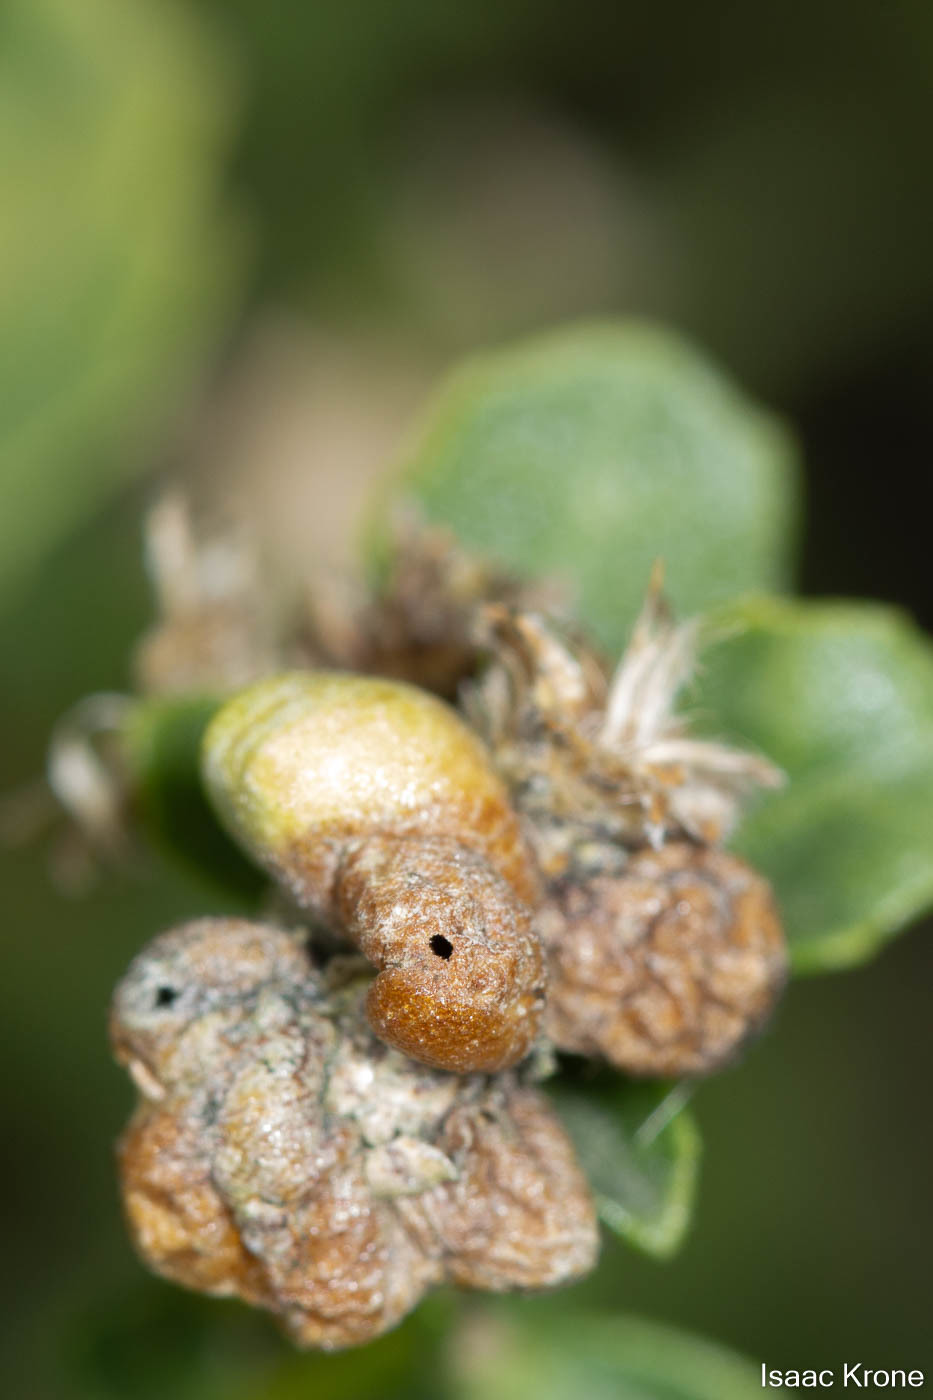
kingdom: Animalia
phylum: Arthropoda
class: Insecta
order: Diptera
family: Cecidomyiidae
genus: Rhopalomyia
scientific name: Rhopalomyia californica
